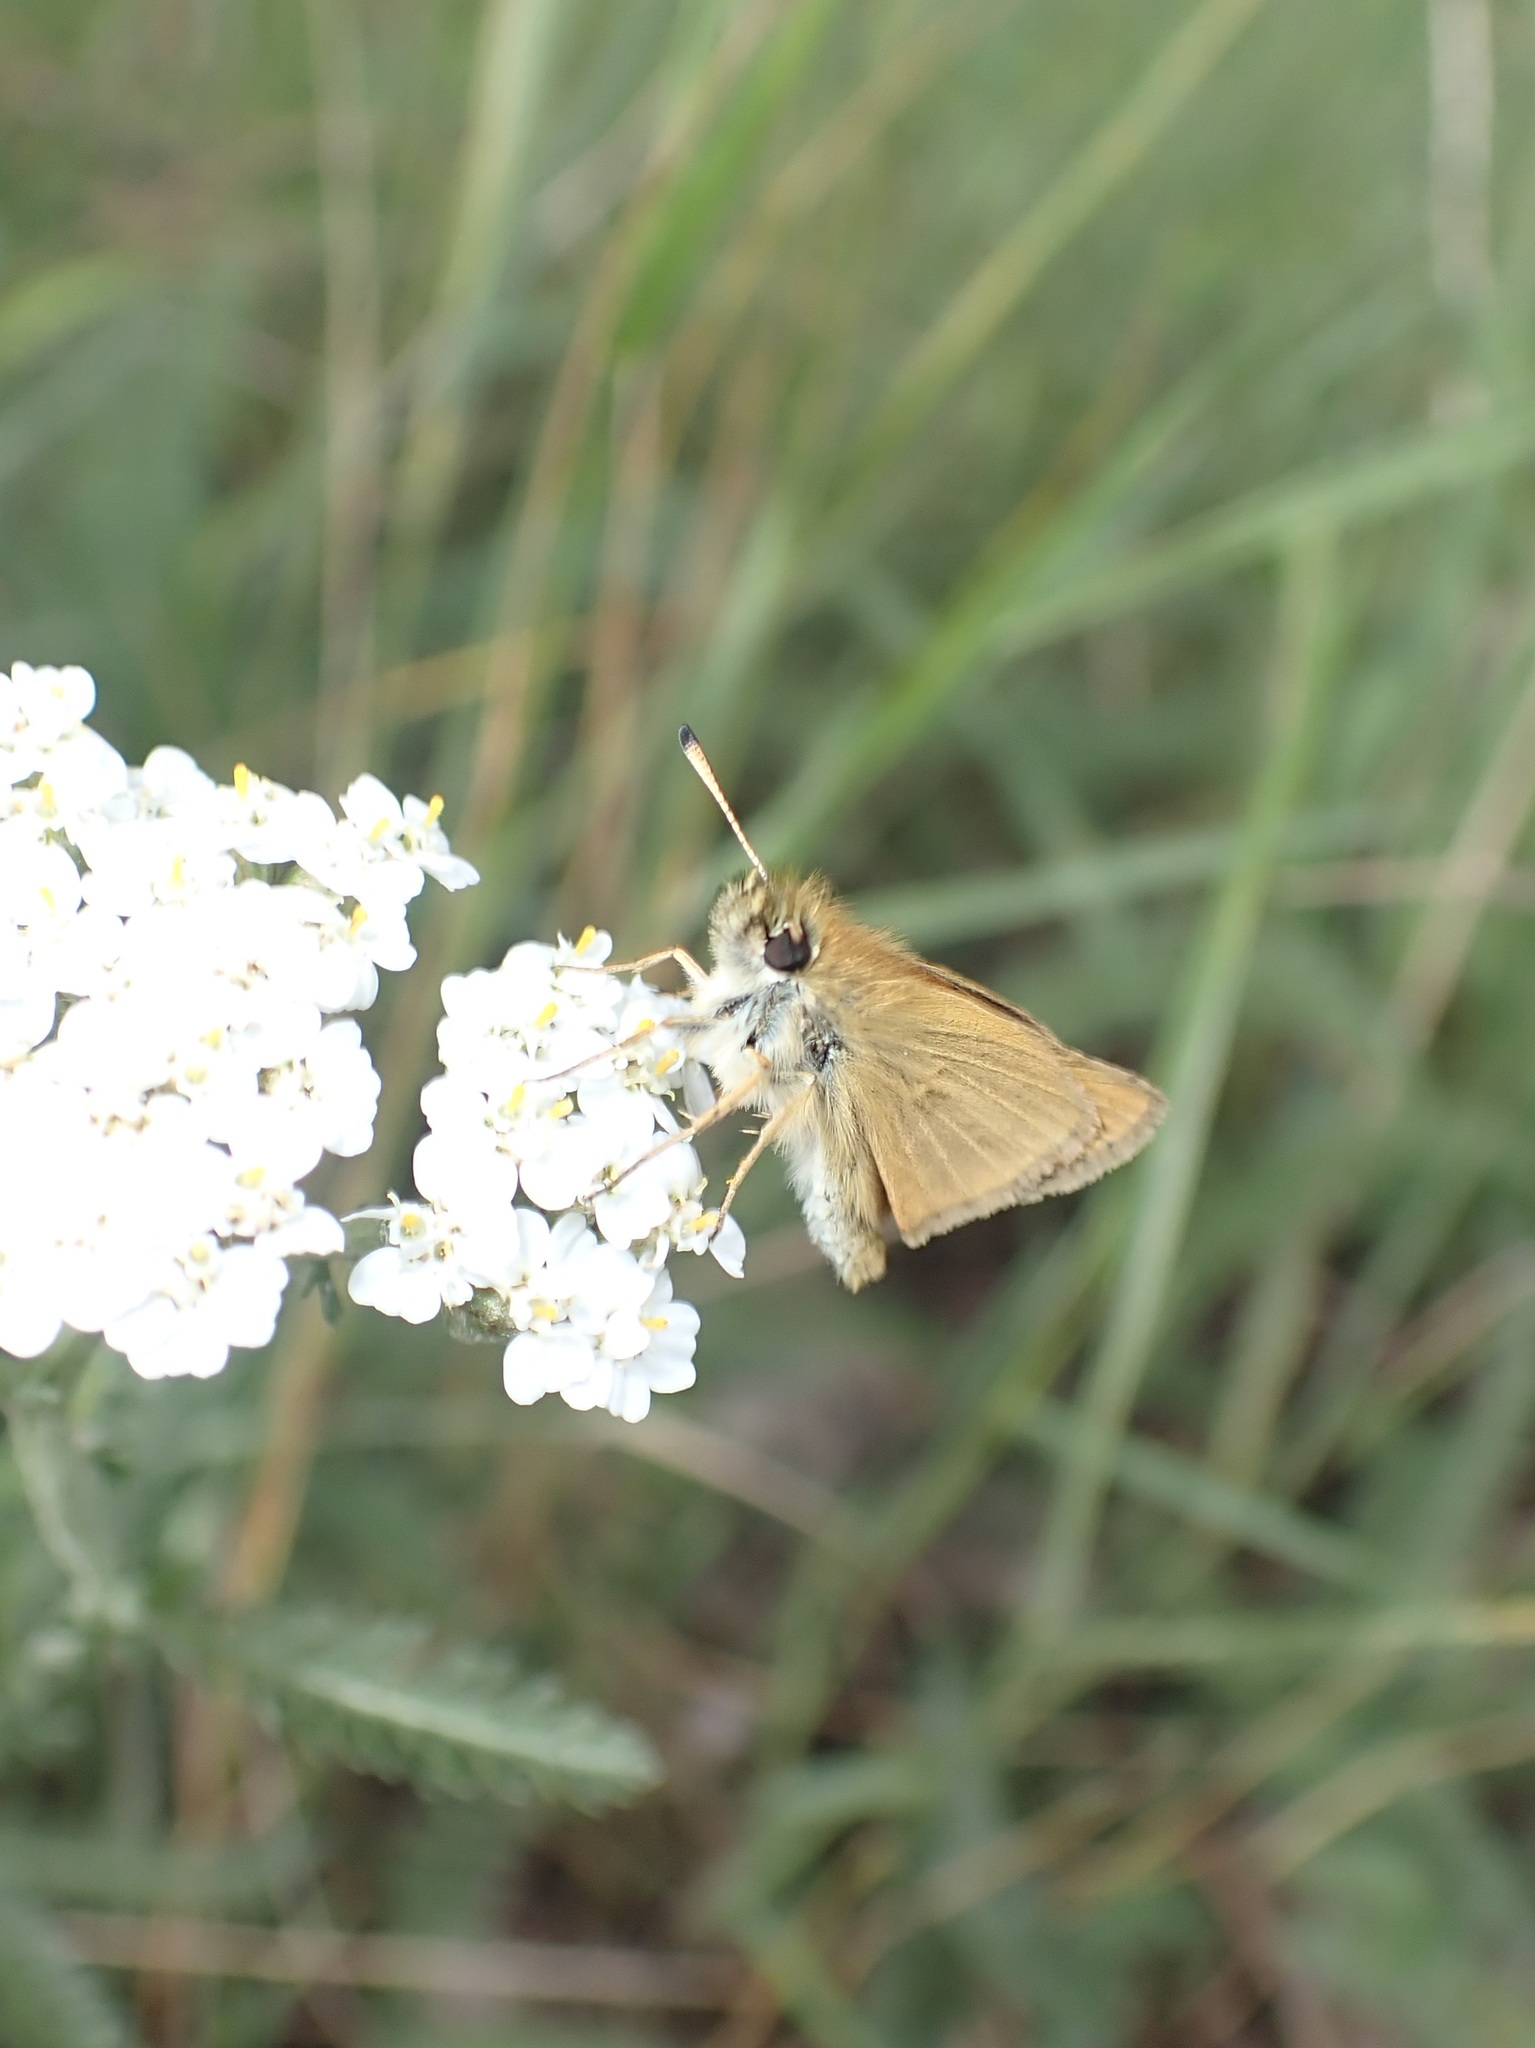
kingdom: Animalia
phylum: Arthropoda
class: Insecta
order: Lepidoptera
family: Hesperiidae
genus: Thymelicus
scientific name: Thymelicus lineola
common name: Essex skipper
